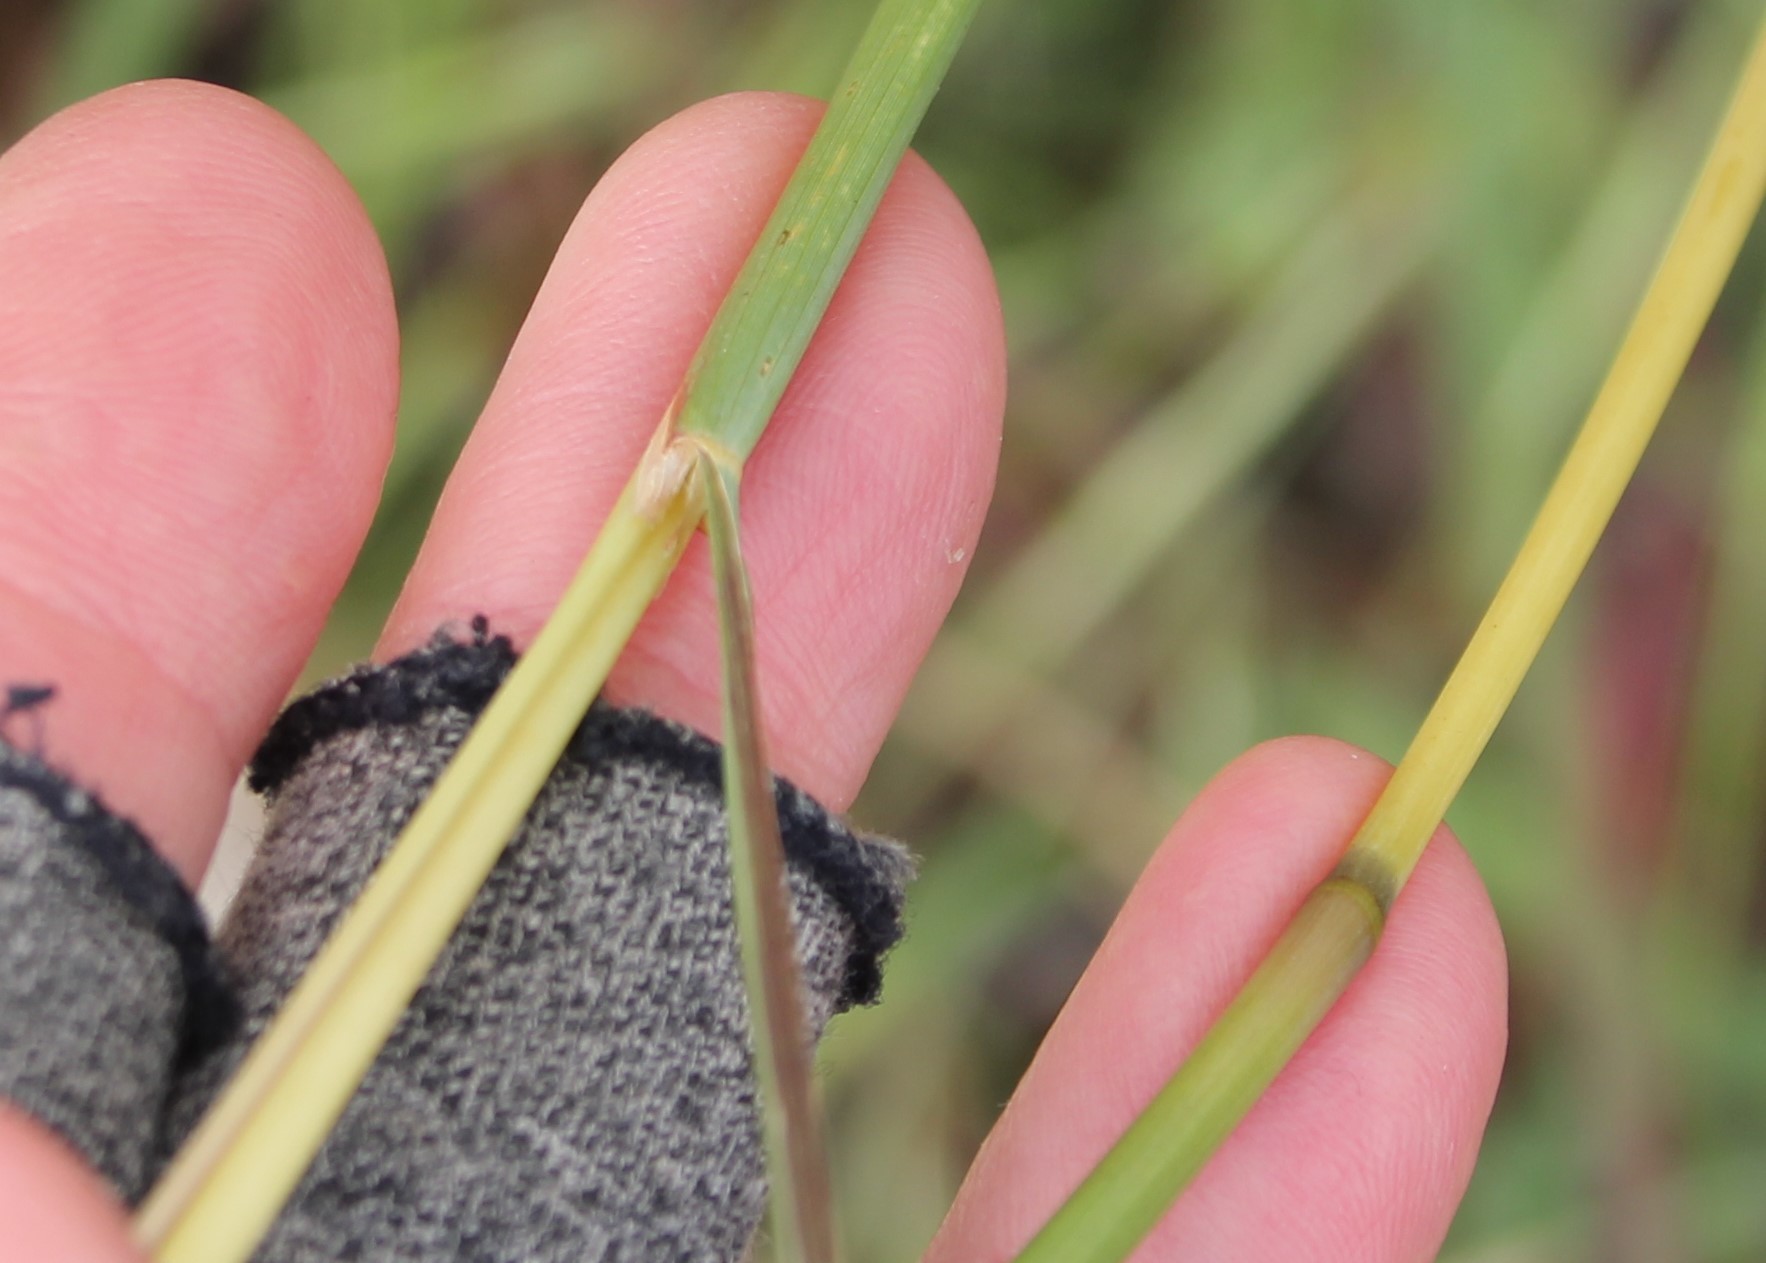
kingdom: Plantae
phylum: Tracheophyta
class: Liliopsida
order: Poales
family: Poaceae
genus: Hyparrhenia
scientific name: Hyparrhenia hirta
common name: Thatching grass
